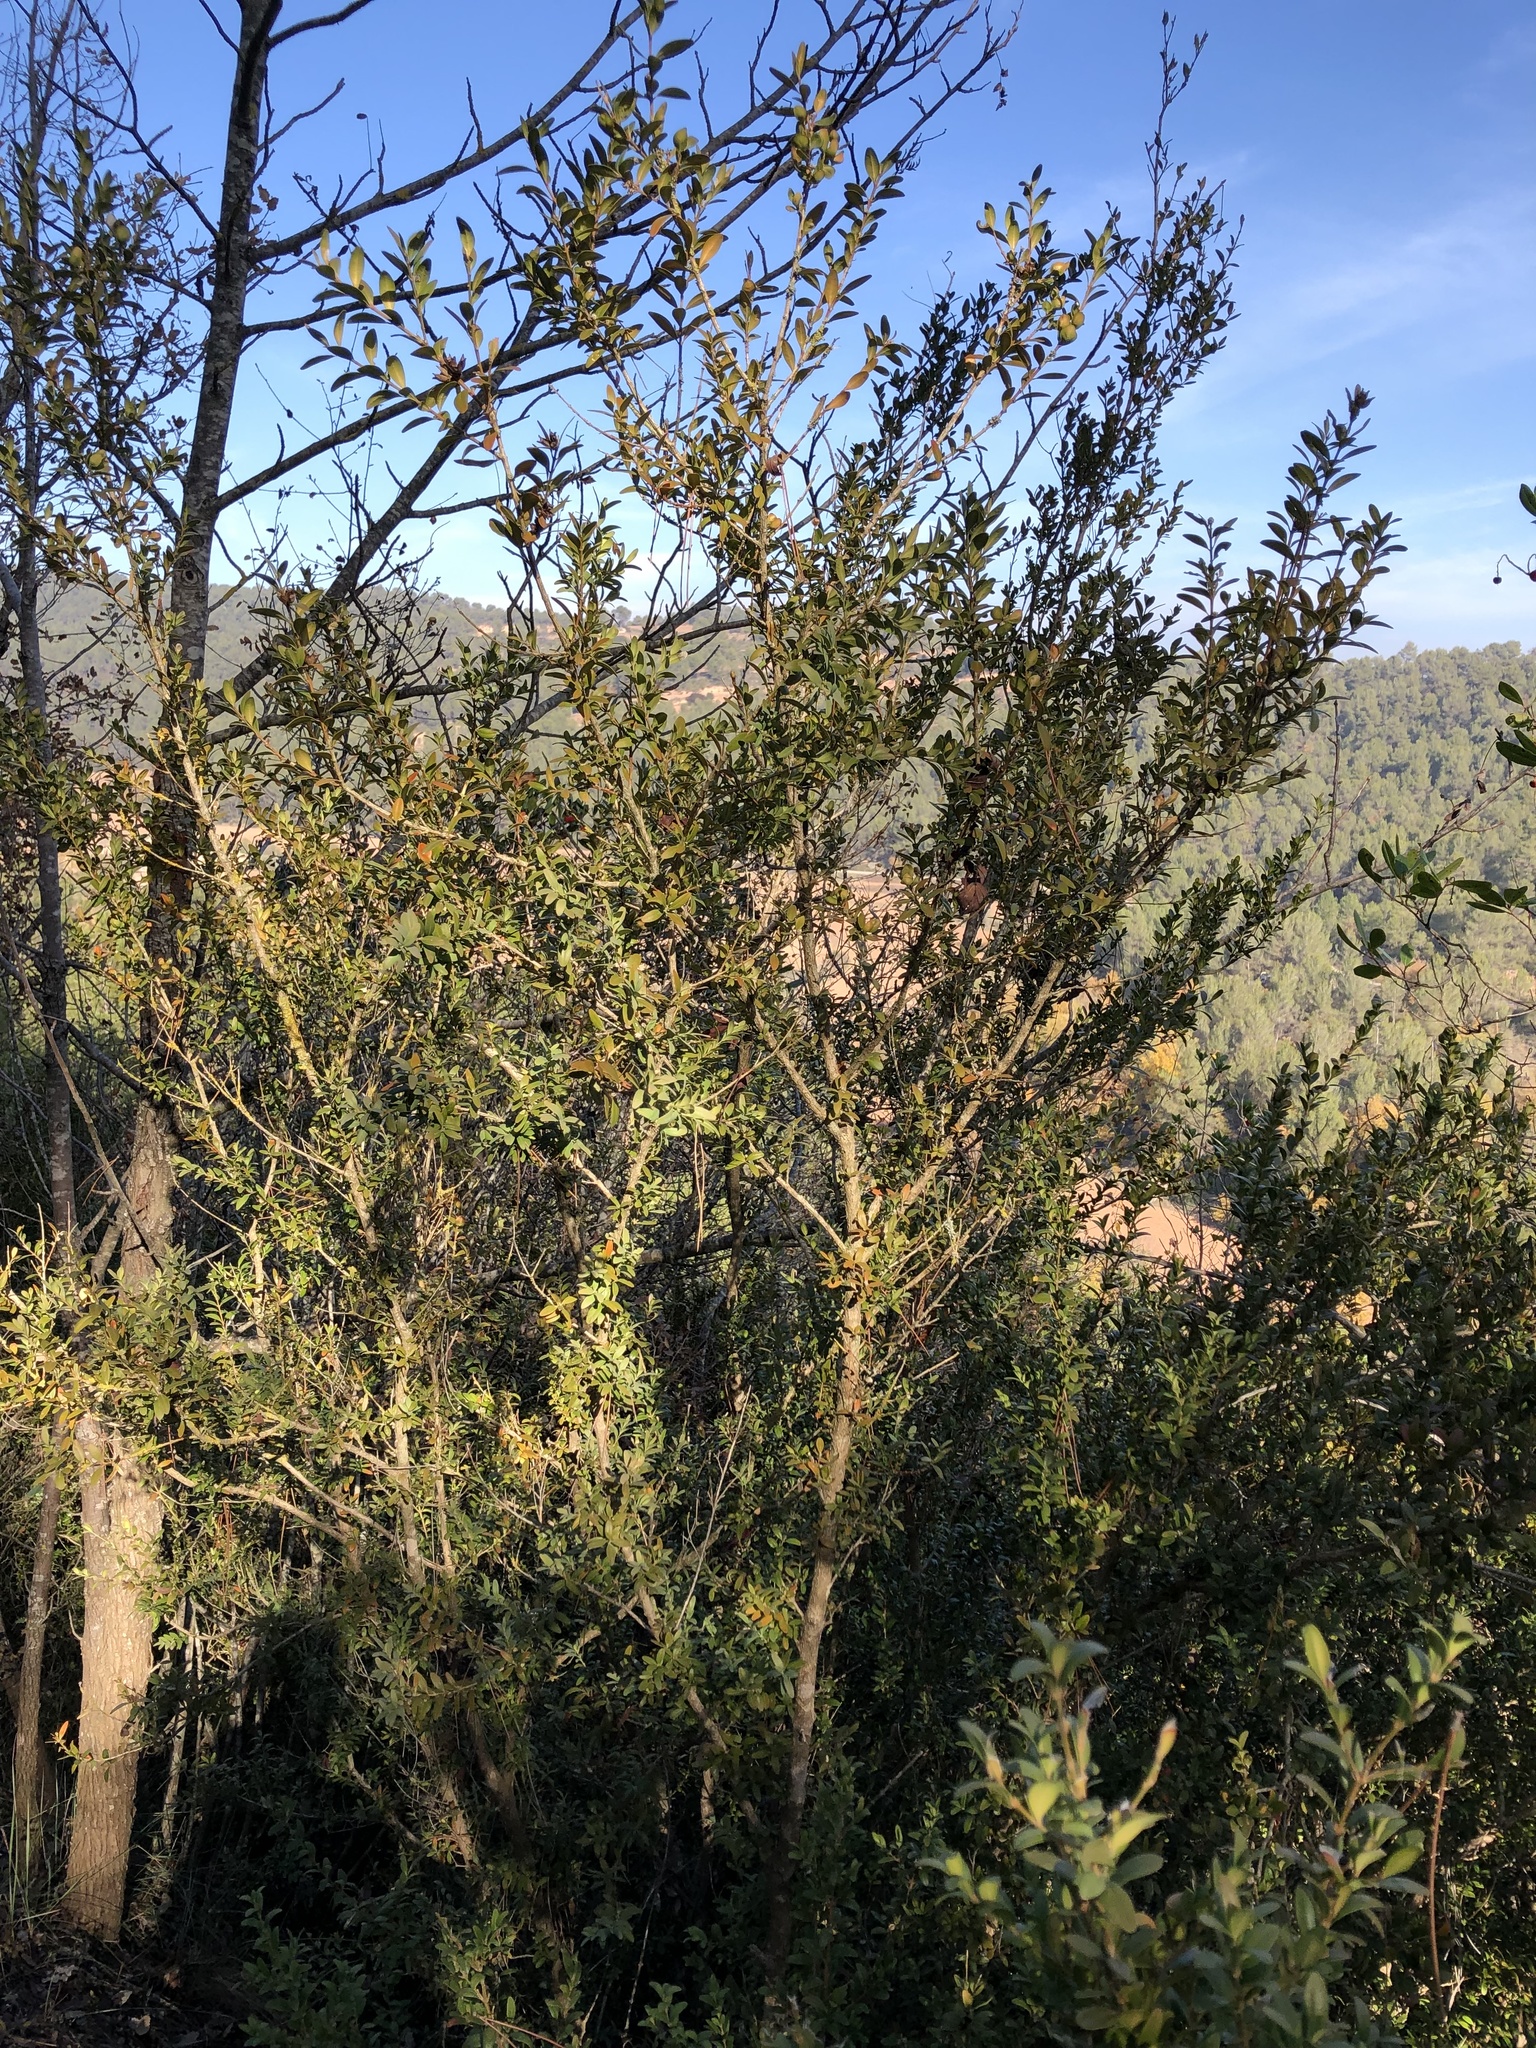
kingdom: Plantae
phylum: Tracheophyta
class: Magnoliopsida
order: Buxales
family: Buxaceae
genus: Buxus
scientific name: Buxus sempervirens
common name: Box
